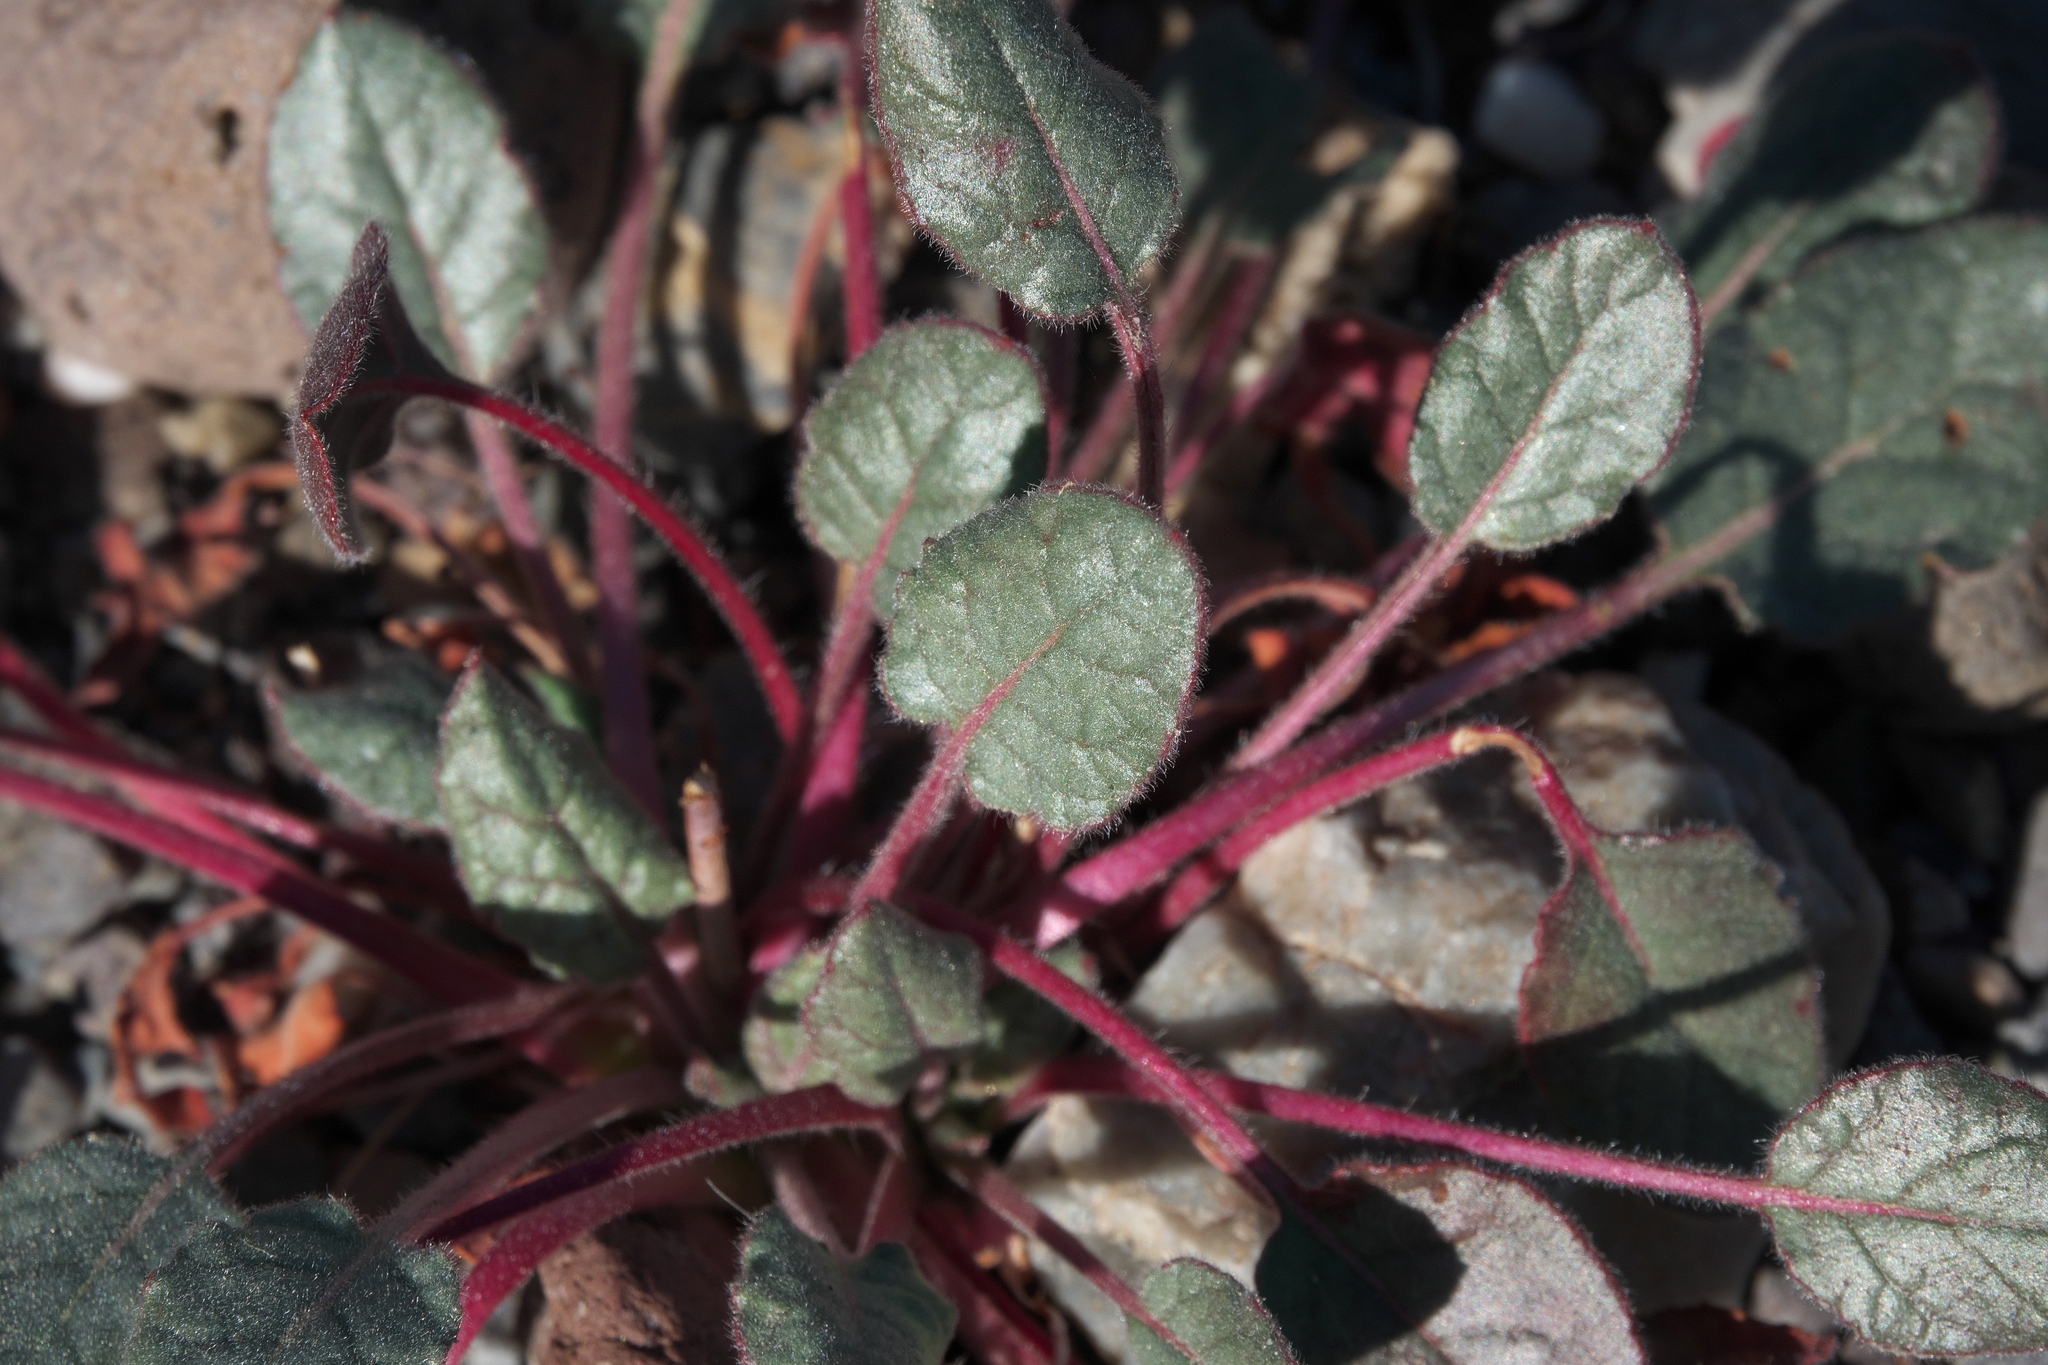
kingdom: Plantae
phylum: Tracheophyta
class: Magnoliopsida
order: Caryophyllales
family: Polygonaceae
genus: Eriogonum
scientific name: Eriogonum inflatum
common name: Desert trumpet
